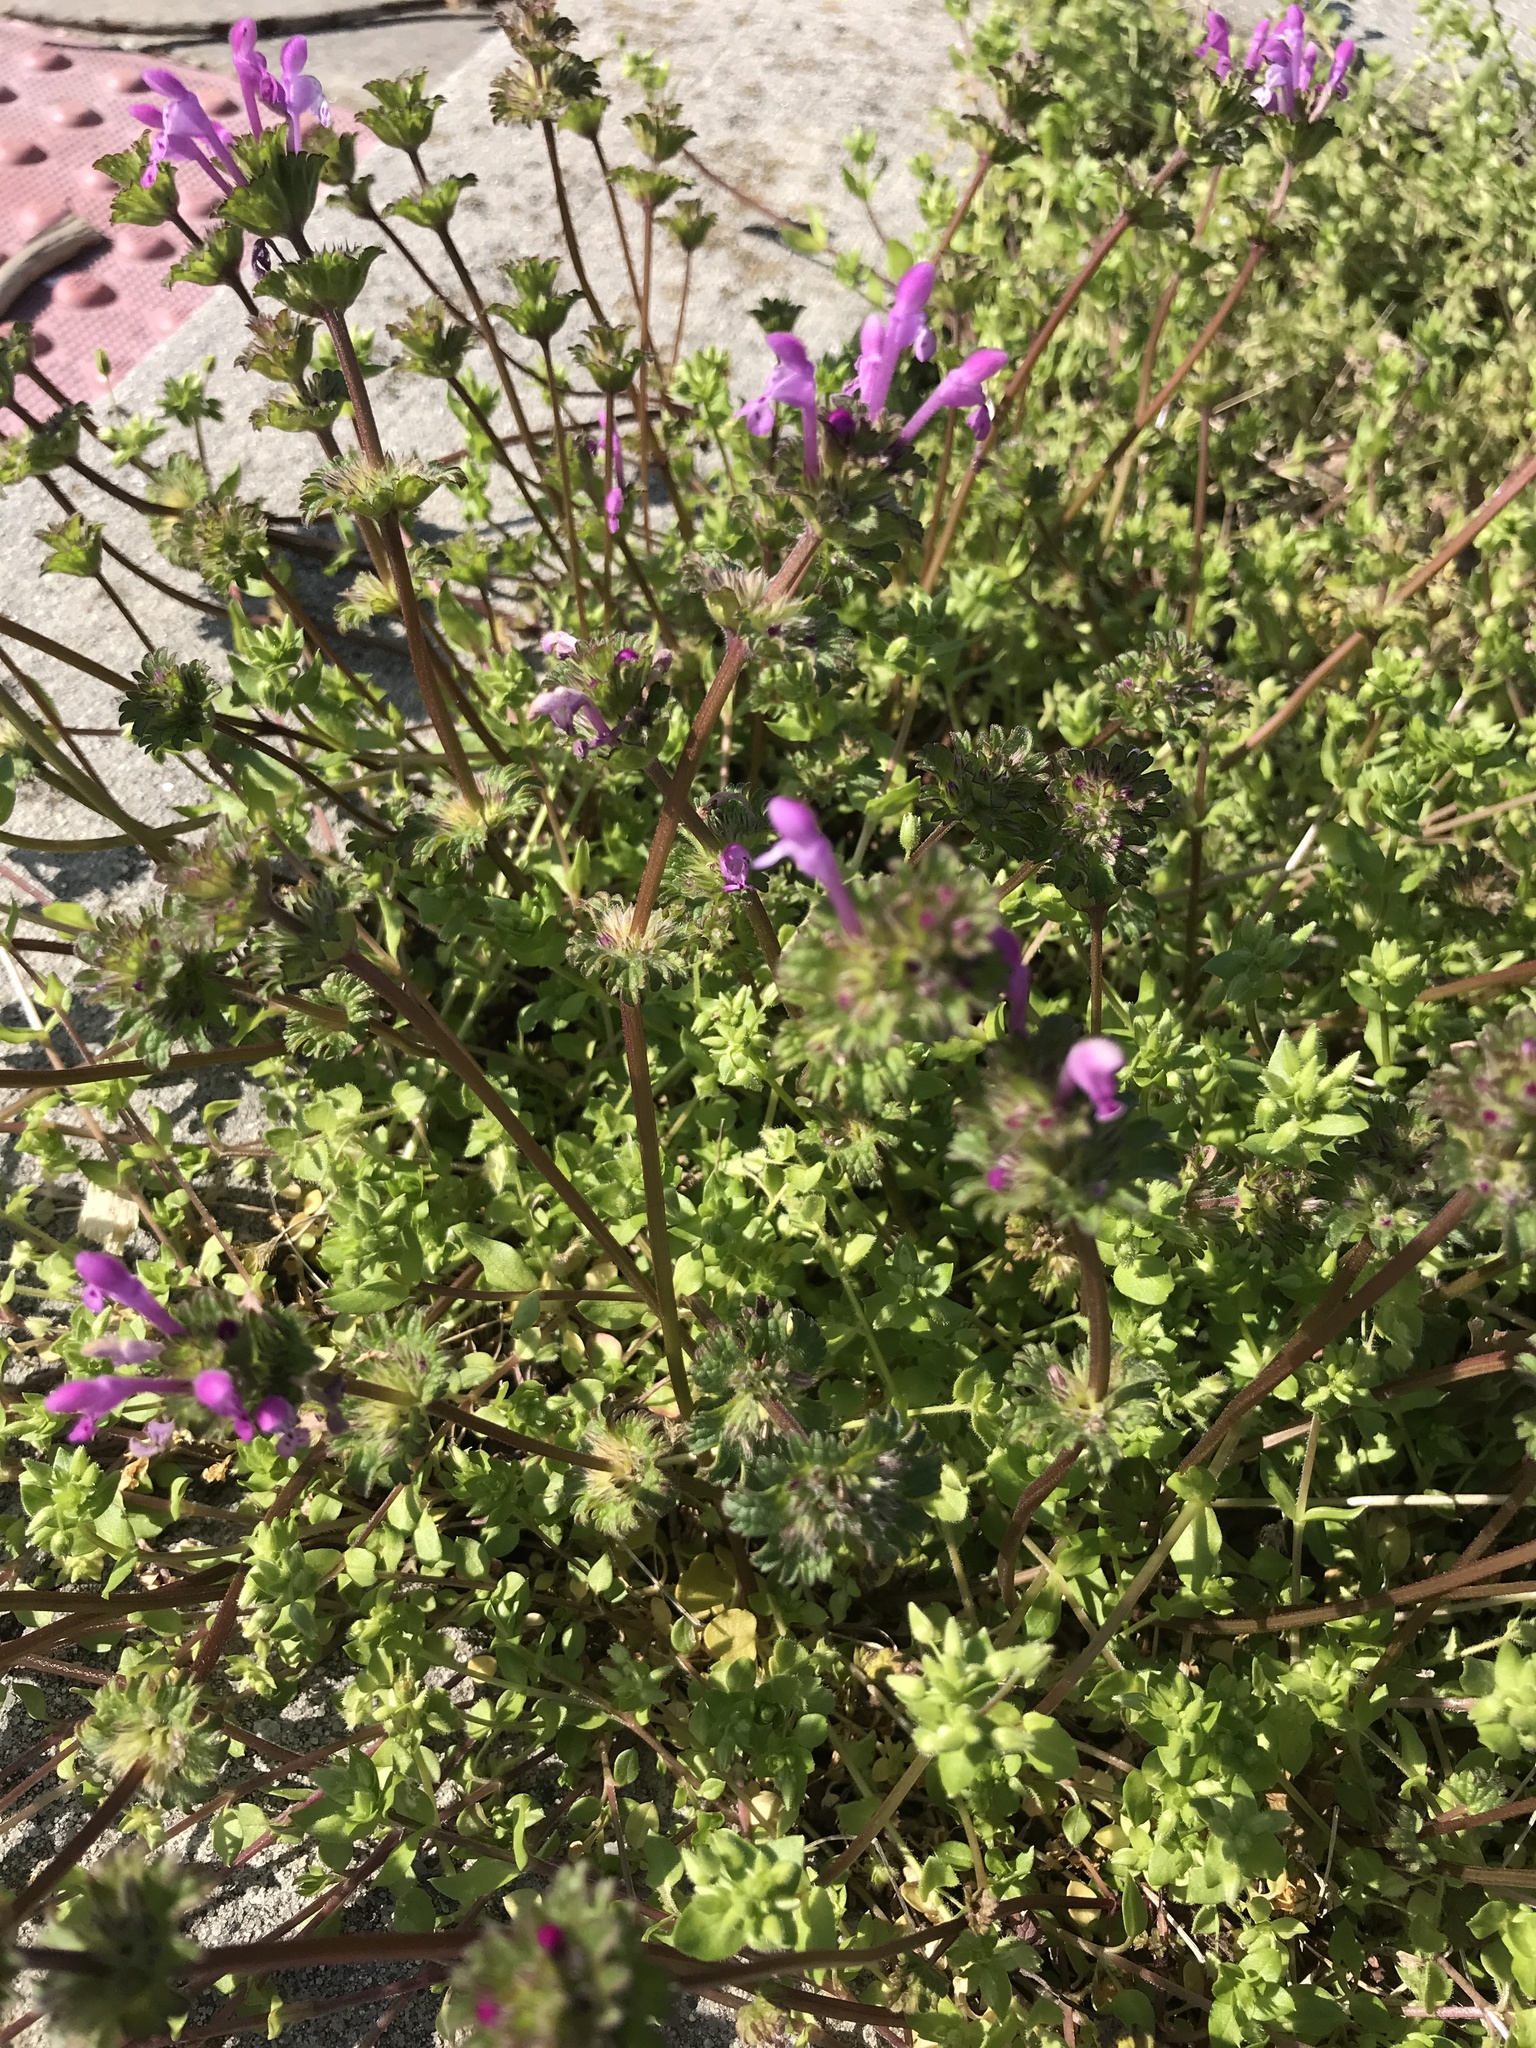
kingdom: Plantae
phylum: Tracheophyta
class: Magnoliopsida
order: Lamiales
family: Lamiaceae
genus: Lamium
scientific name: Lamium amplexicaule
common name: Henbit dead-nettle
